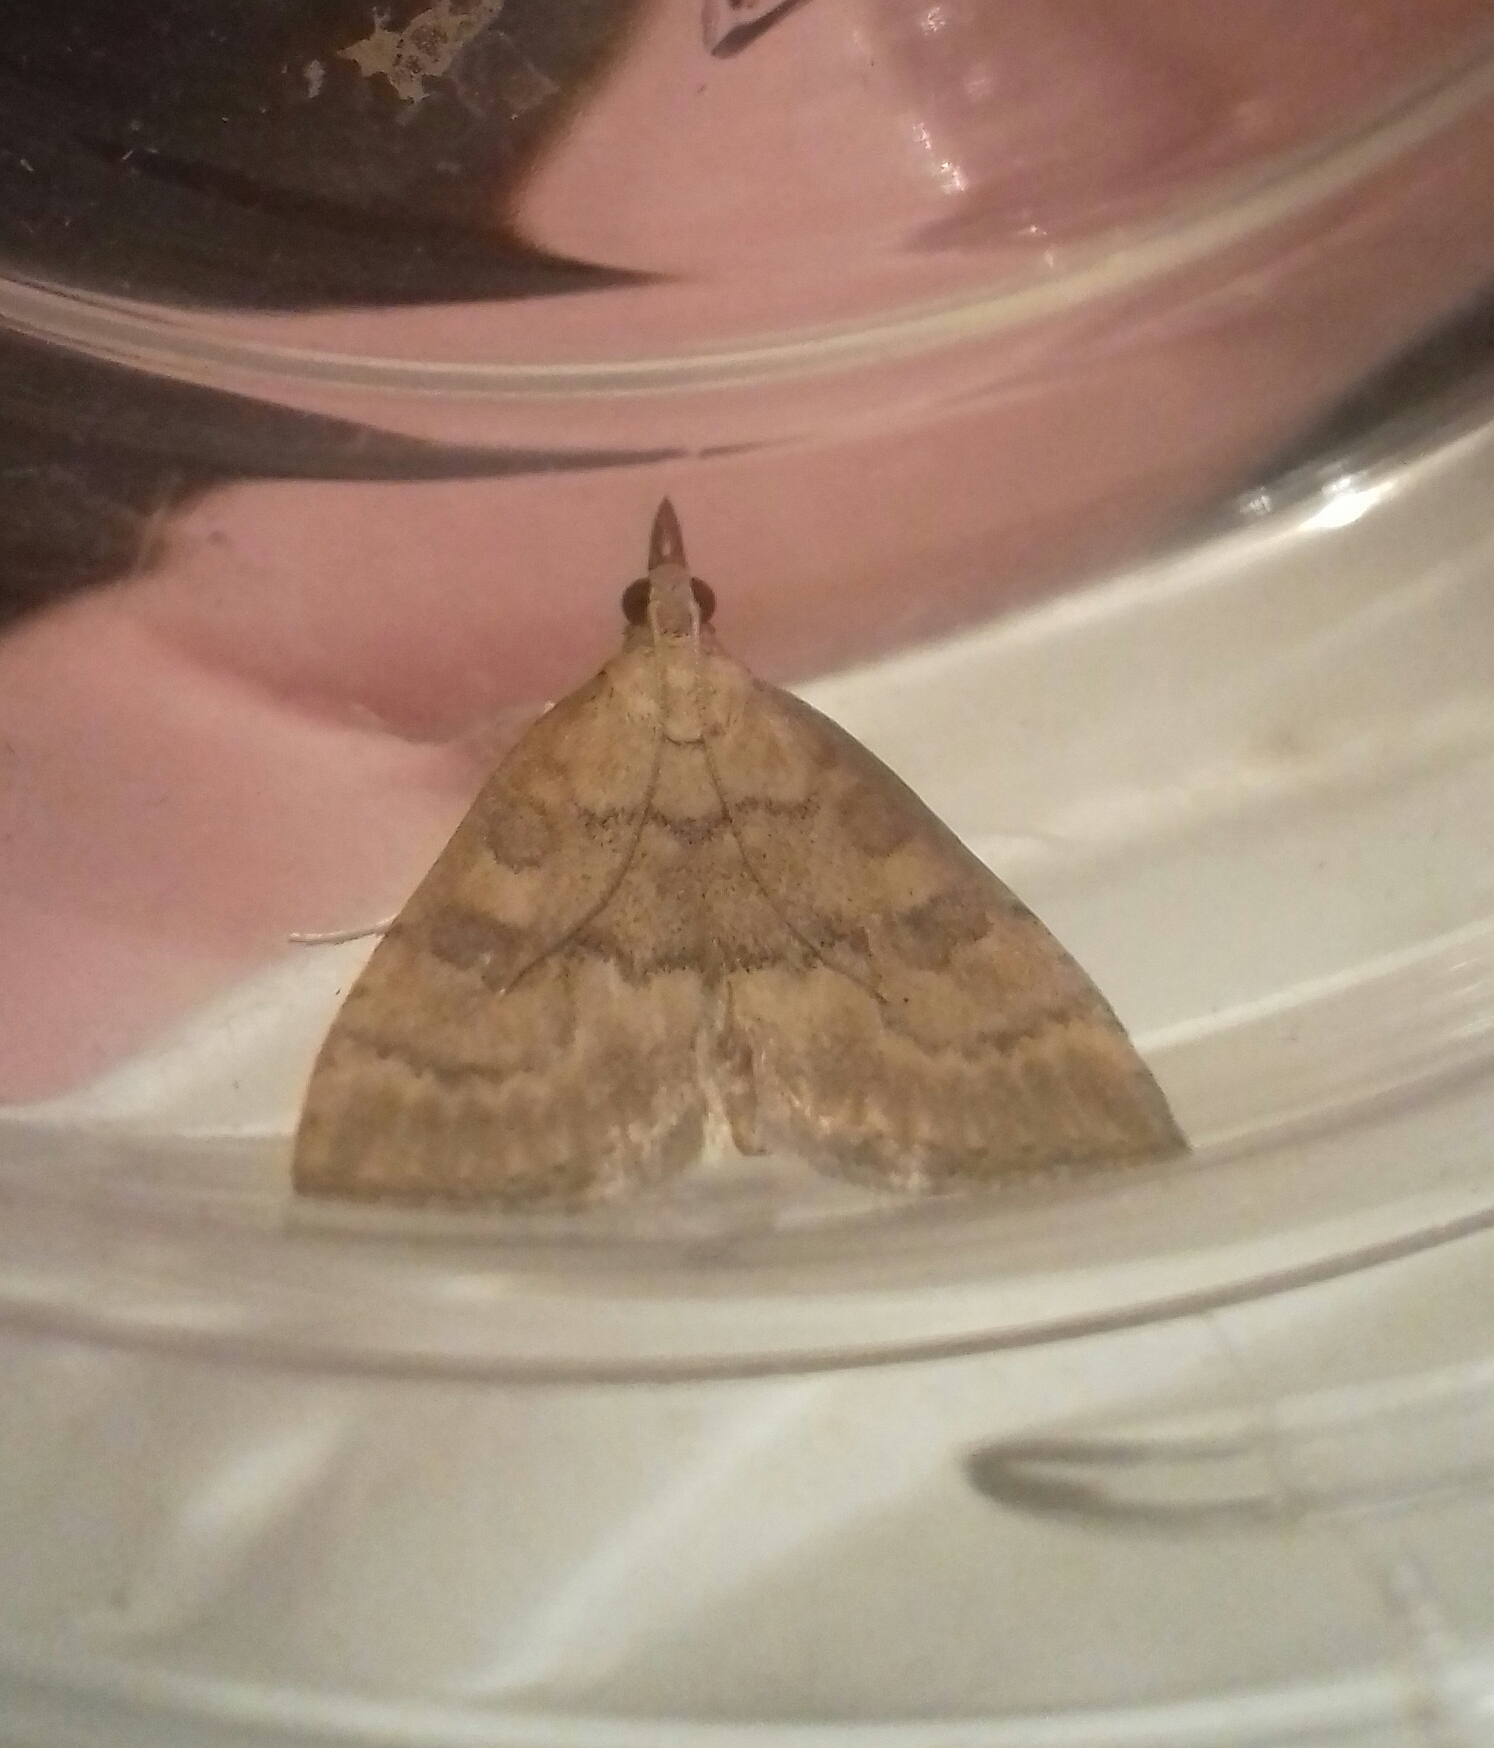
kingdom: Animalia
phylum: Arthropoda
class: Insecta
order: Lepidoptera
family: Crambidae
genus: Udea
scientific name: Udea fulvalis
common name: Fulvous pearl
